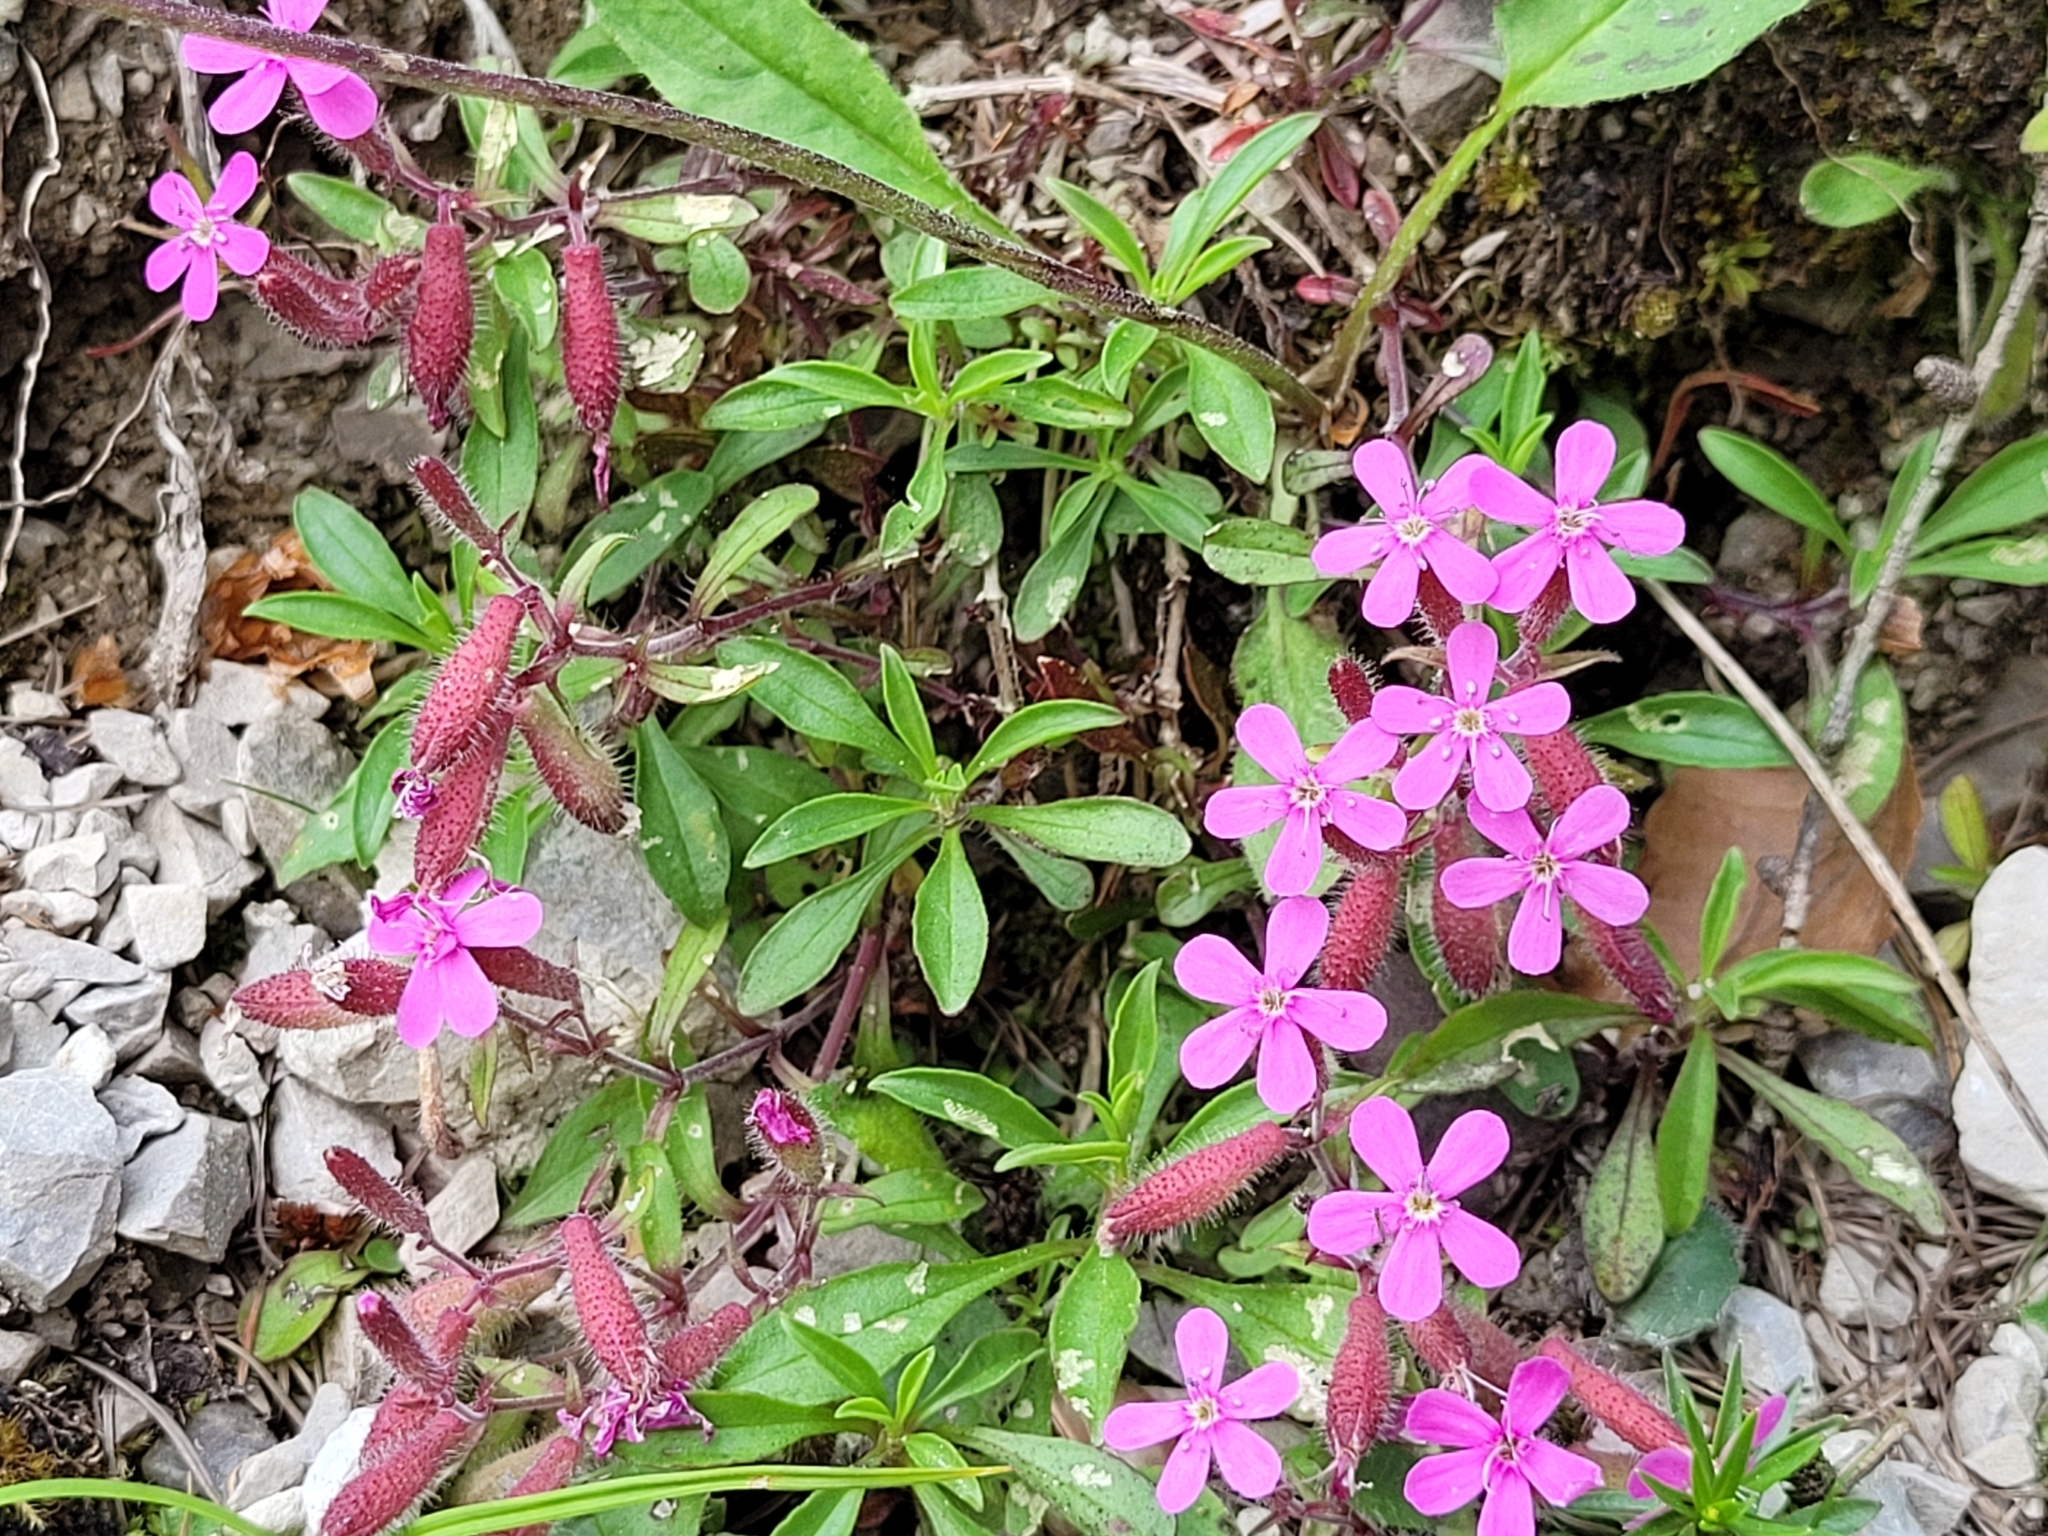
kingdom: Plantae
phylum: Tracheophyta
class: Magnoliopsida
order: Caryophyllales
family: Caryophyllaceae
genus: Saponaria
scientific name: Saponaria ocymoides
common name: Rock soapwort
